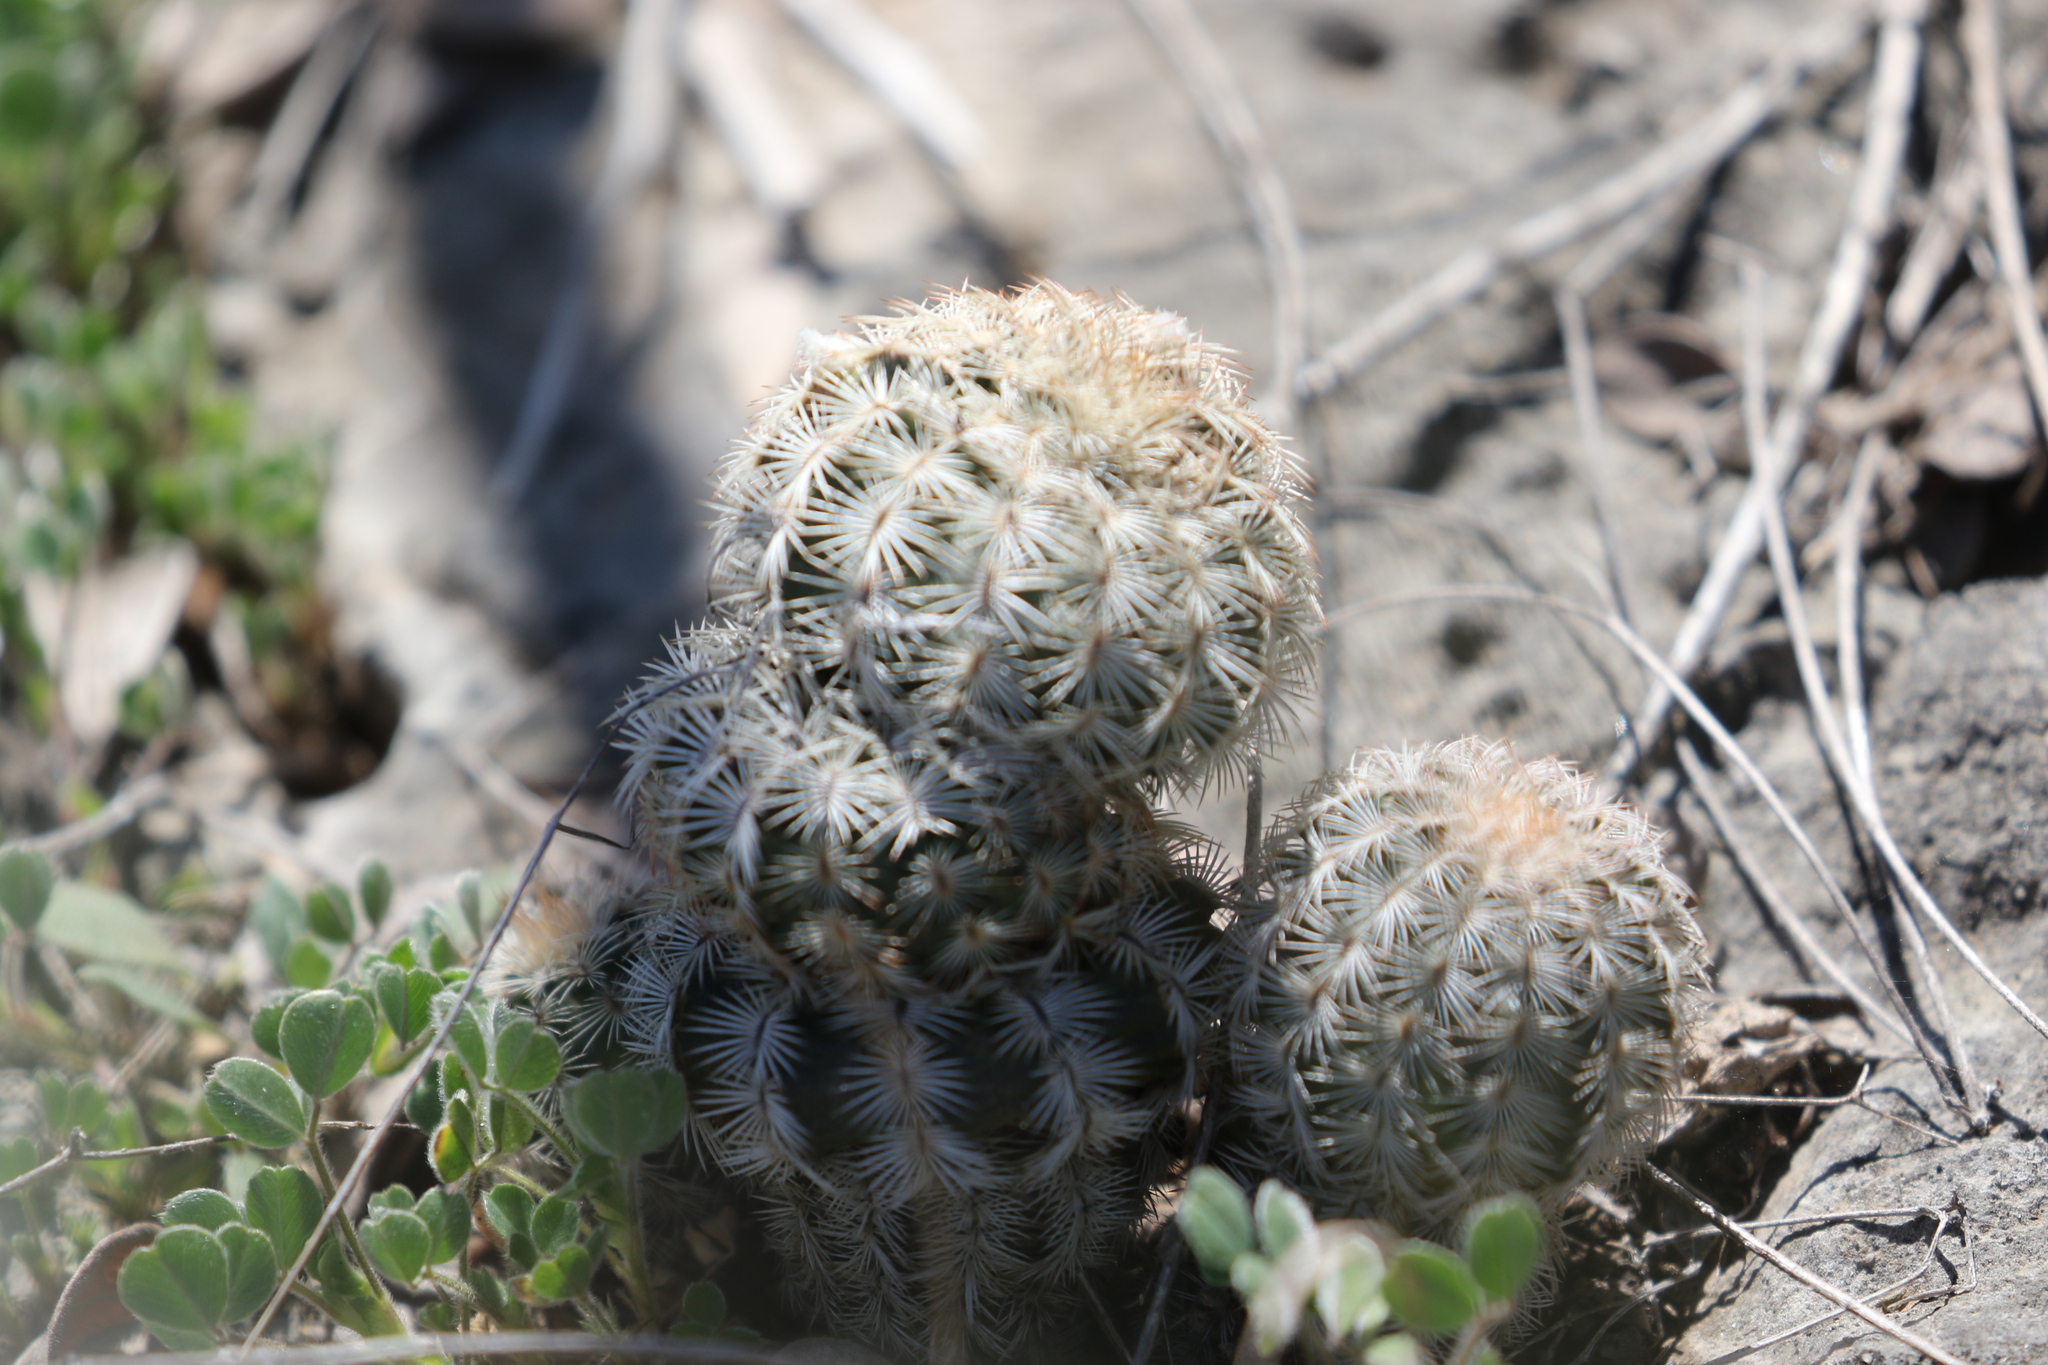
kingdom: Plantae
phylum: Tracheophyta
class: Magnoliopsida
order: Caryophyllales
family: Cactaceae
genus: Echinocereus
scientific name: Echinocereus reichenbachii
